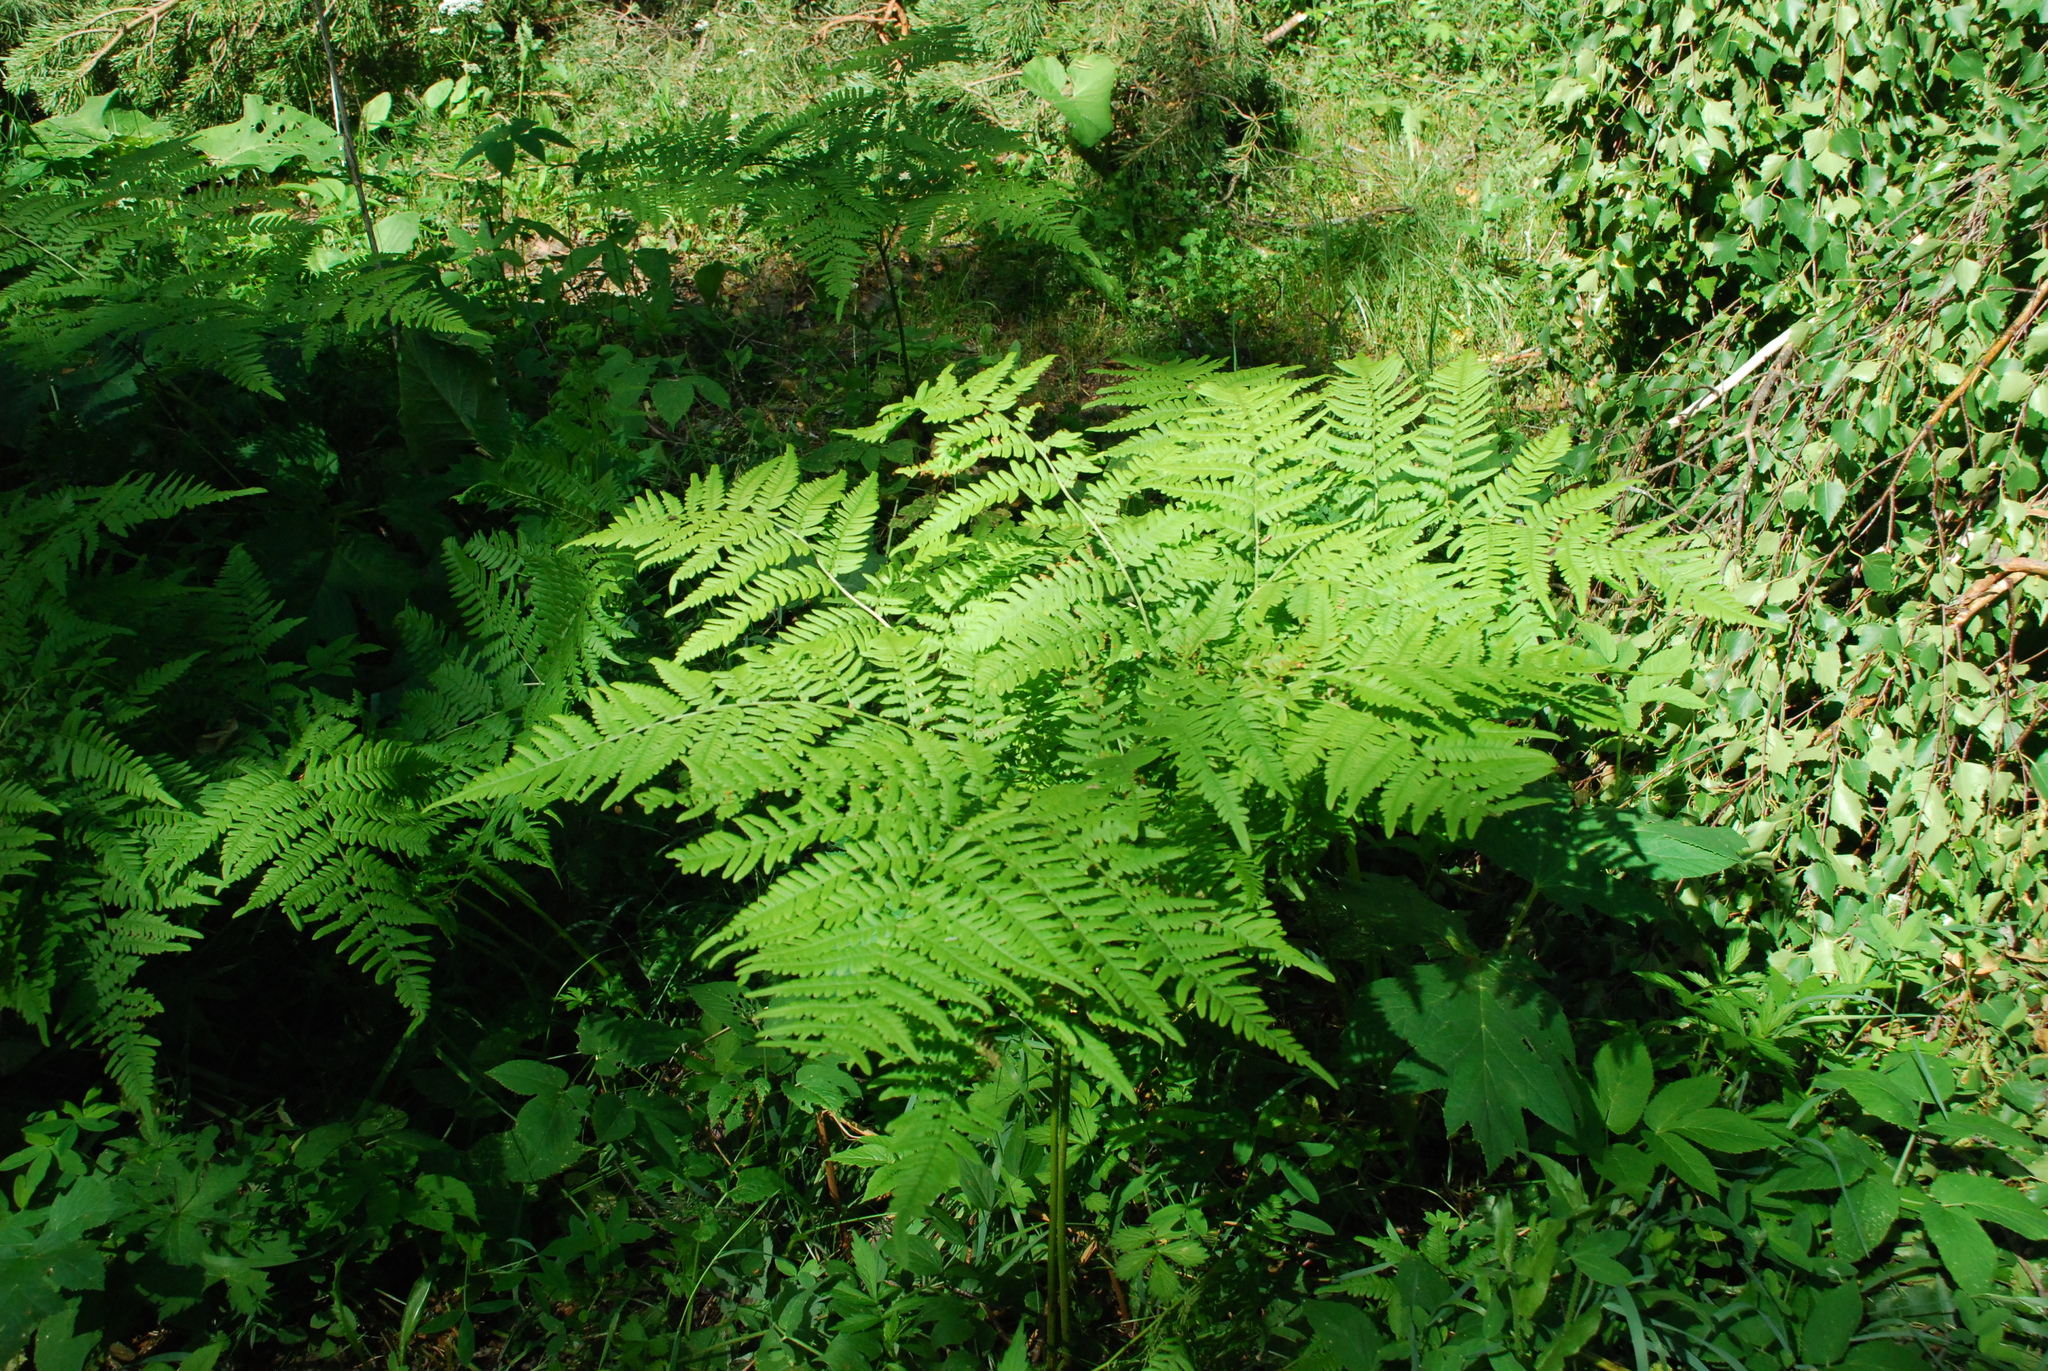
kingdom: Plantae
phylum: Tracheophyta
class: Polypodiopsida
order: Polypodiales
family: Dennstaedtiaceae
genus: Pteridium
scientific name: Pteridium aquilinum
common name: Bracken
